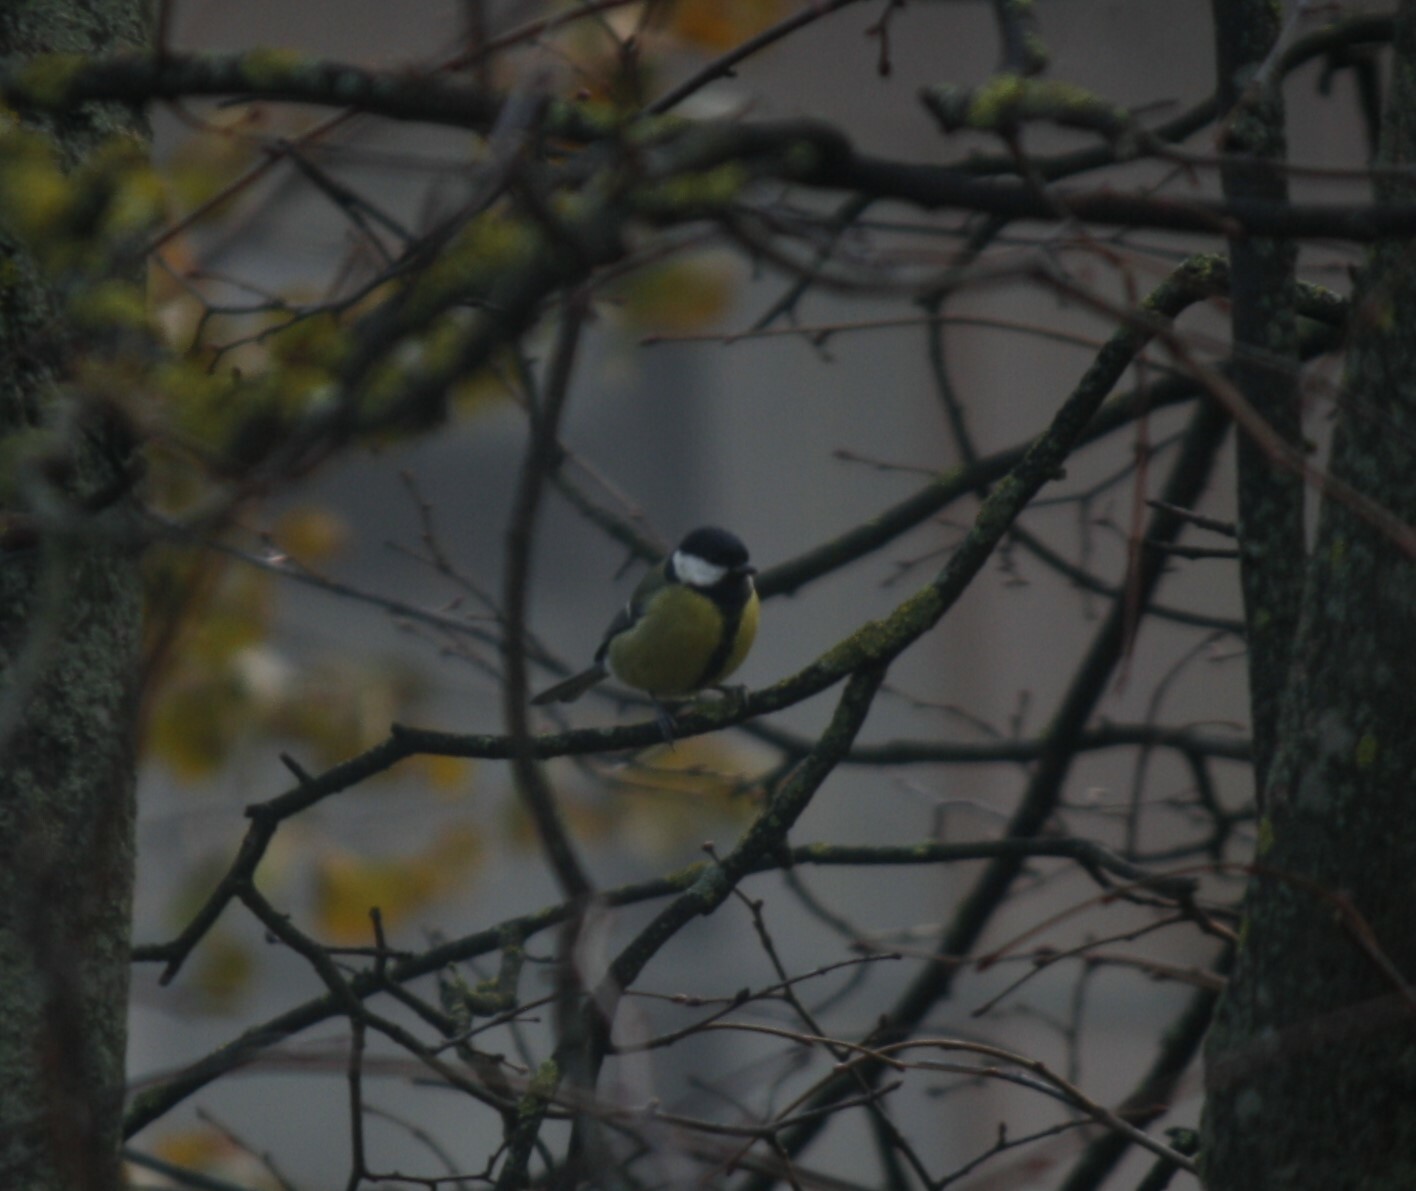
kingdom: Animalia
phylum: Chordata
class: Aves
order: Passeriformes
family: Paridae
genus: Parus
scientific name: Parus major
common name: Great tit
